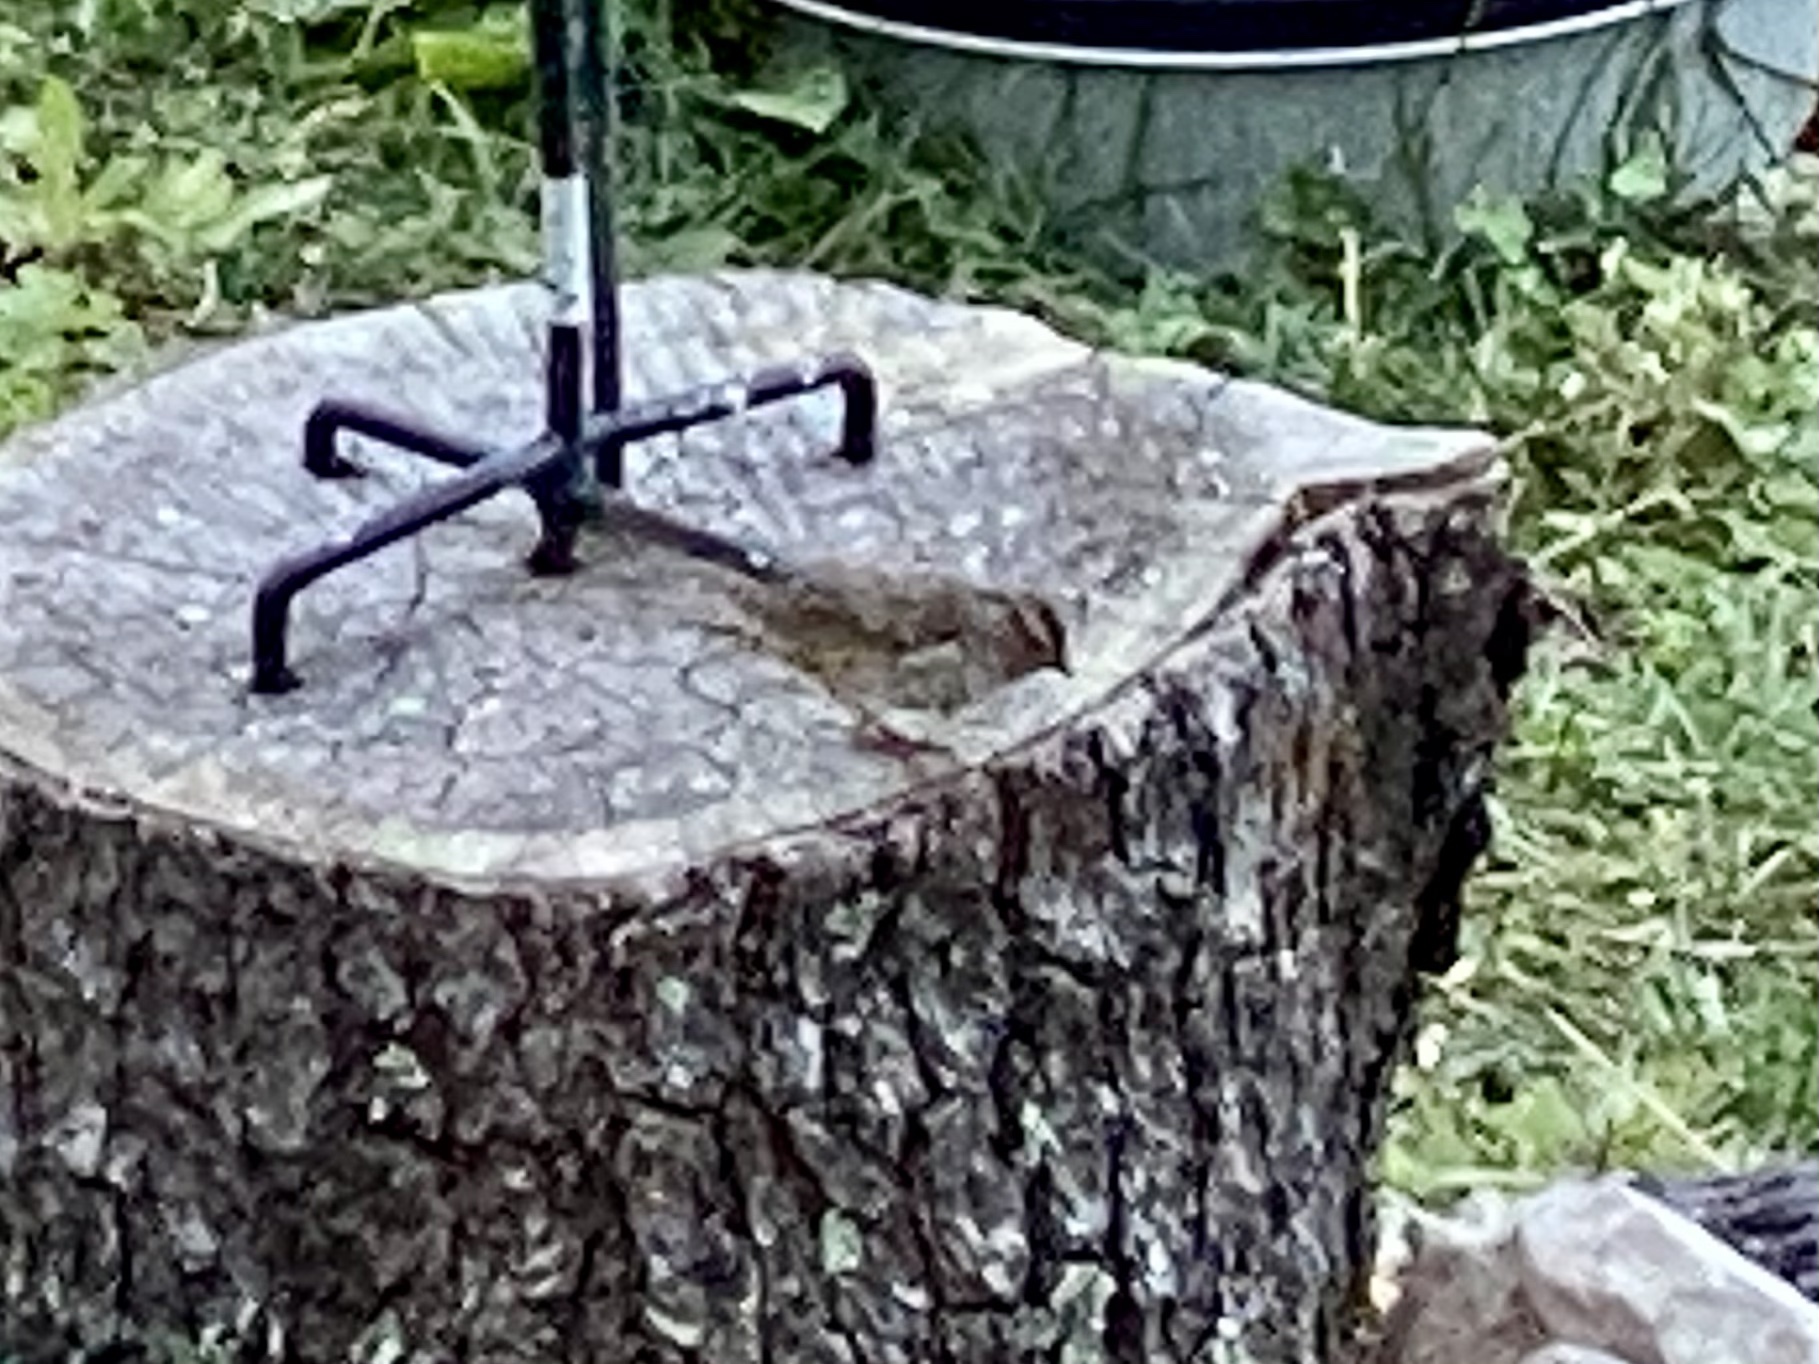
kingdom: Animalia
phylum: Chordata
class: Aves
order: Passeriformes
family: Passerellidae
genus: Zonotrichia
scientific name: Zonotrichia leucophrys
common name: White-crowned sparrow
